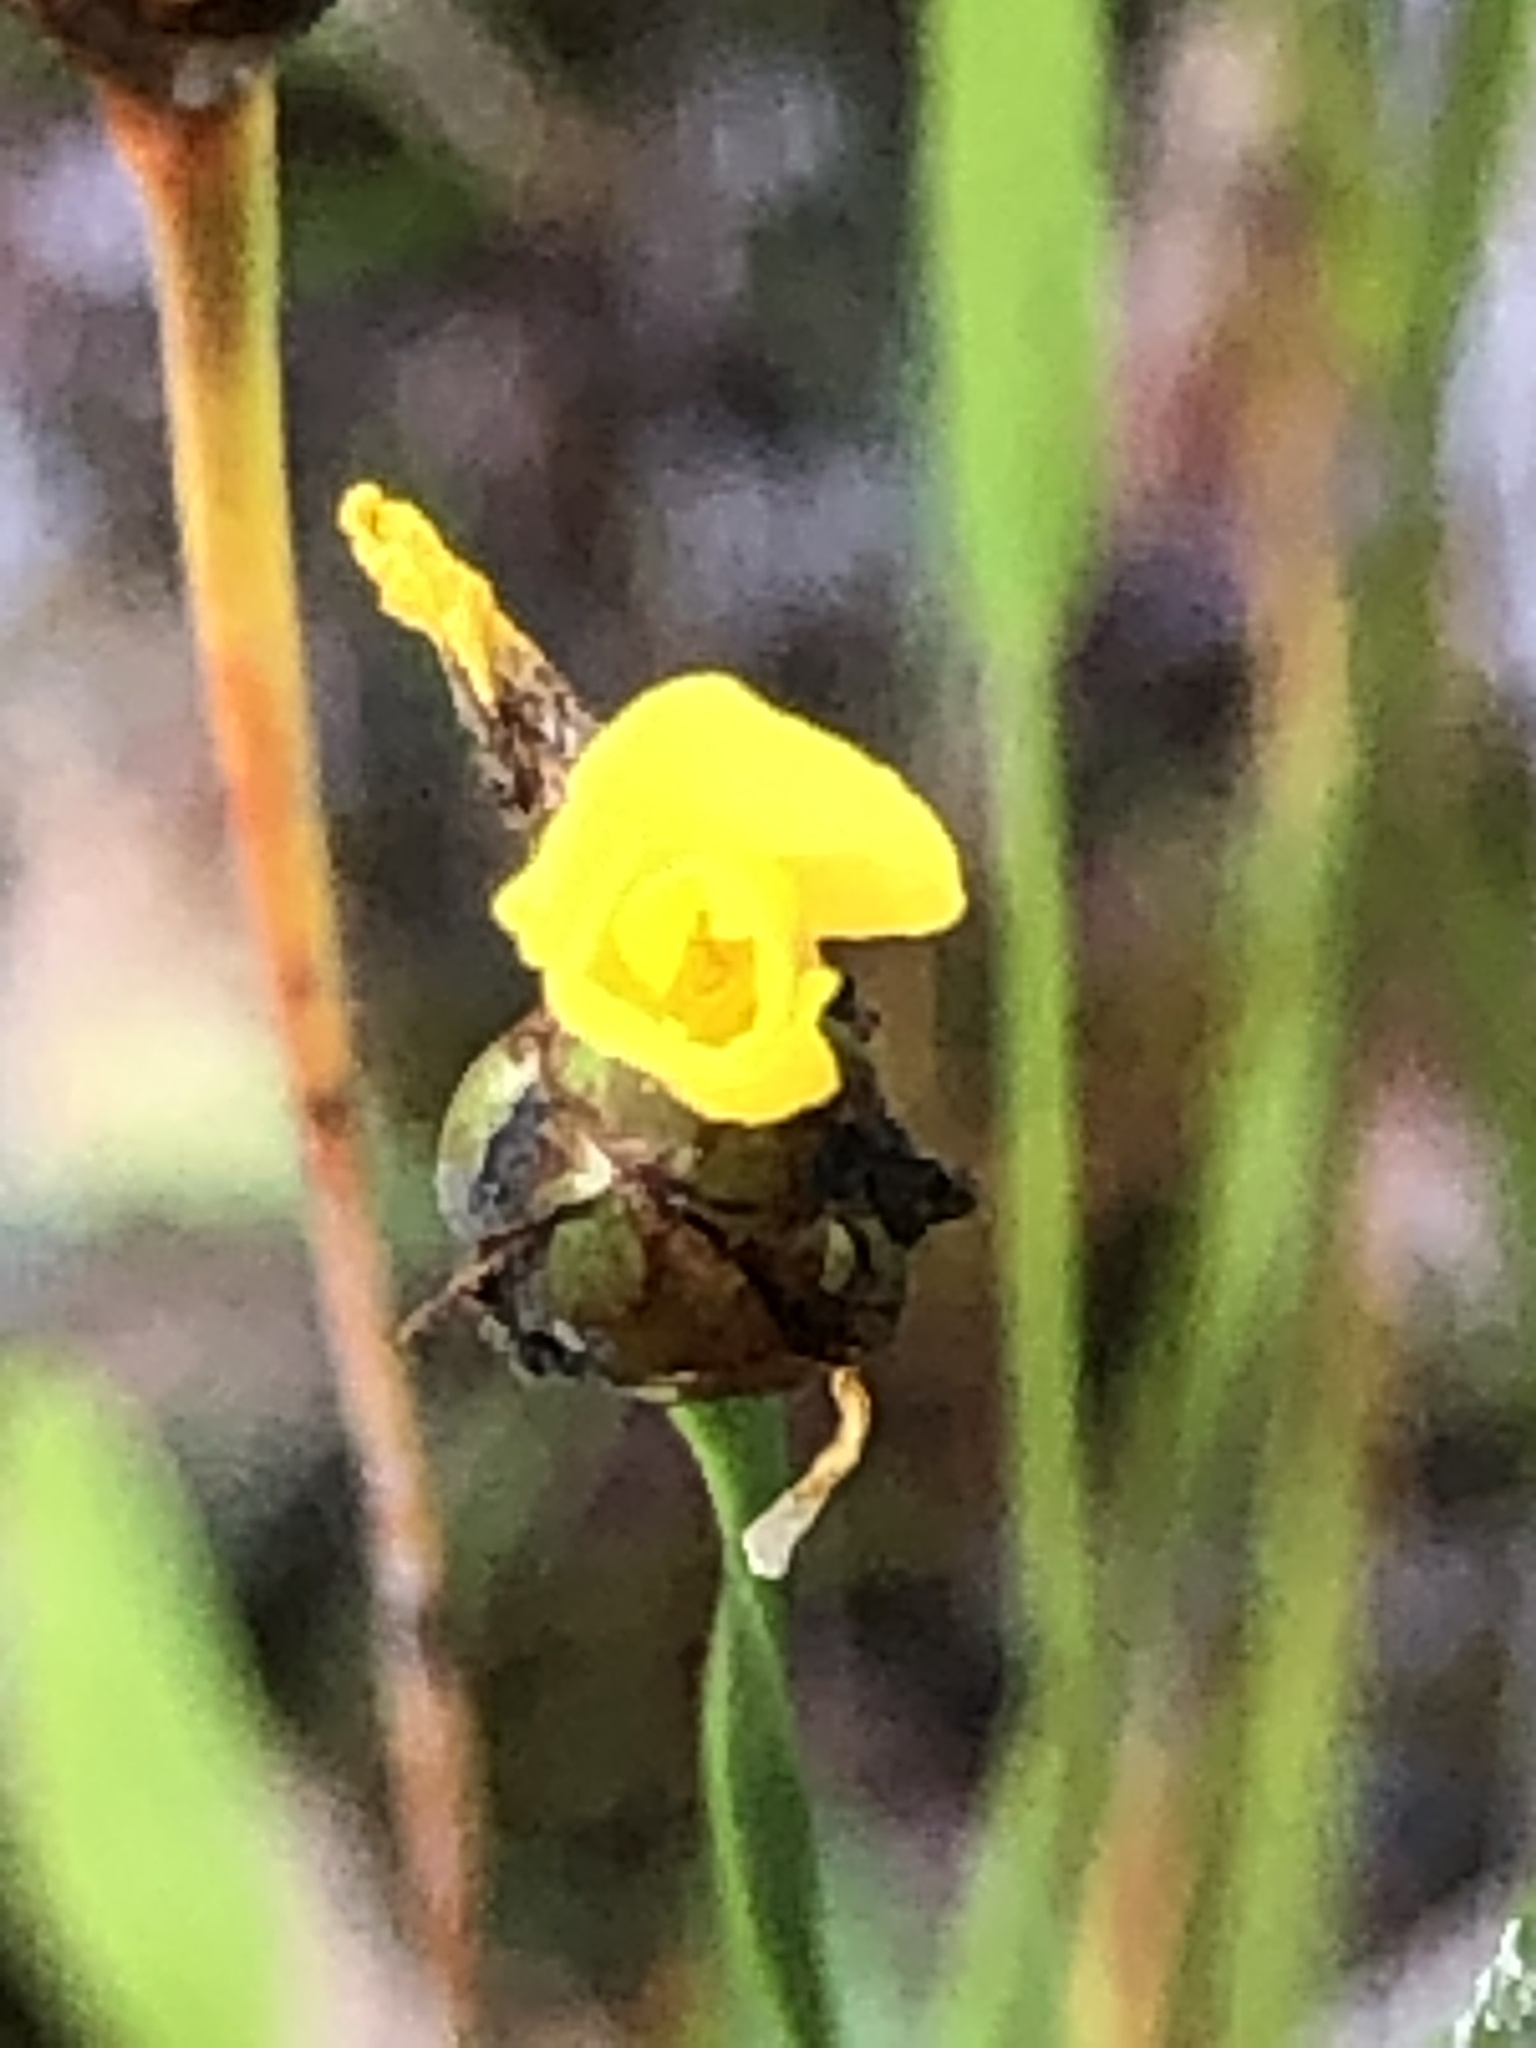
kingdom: Plantae
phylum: Tracheophyta
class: Liliopsida
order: Poales
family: Xyridaceae
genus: Xyris
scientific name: Xyris difformis
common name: Bog yellow-eyed-grass
